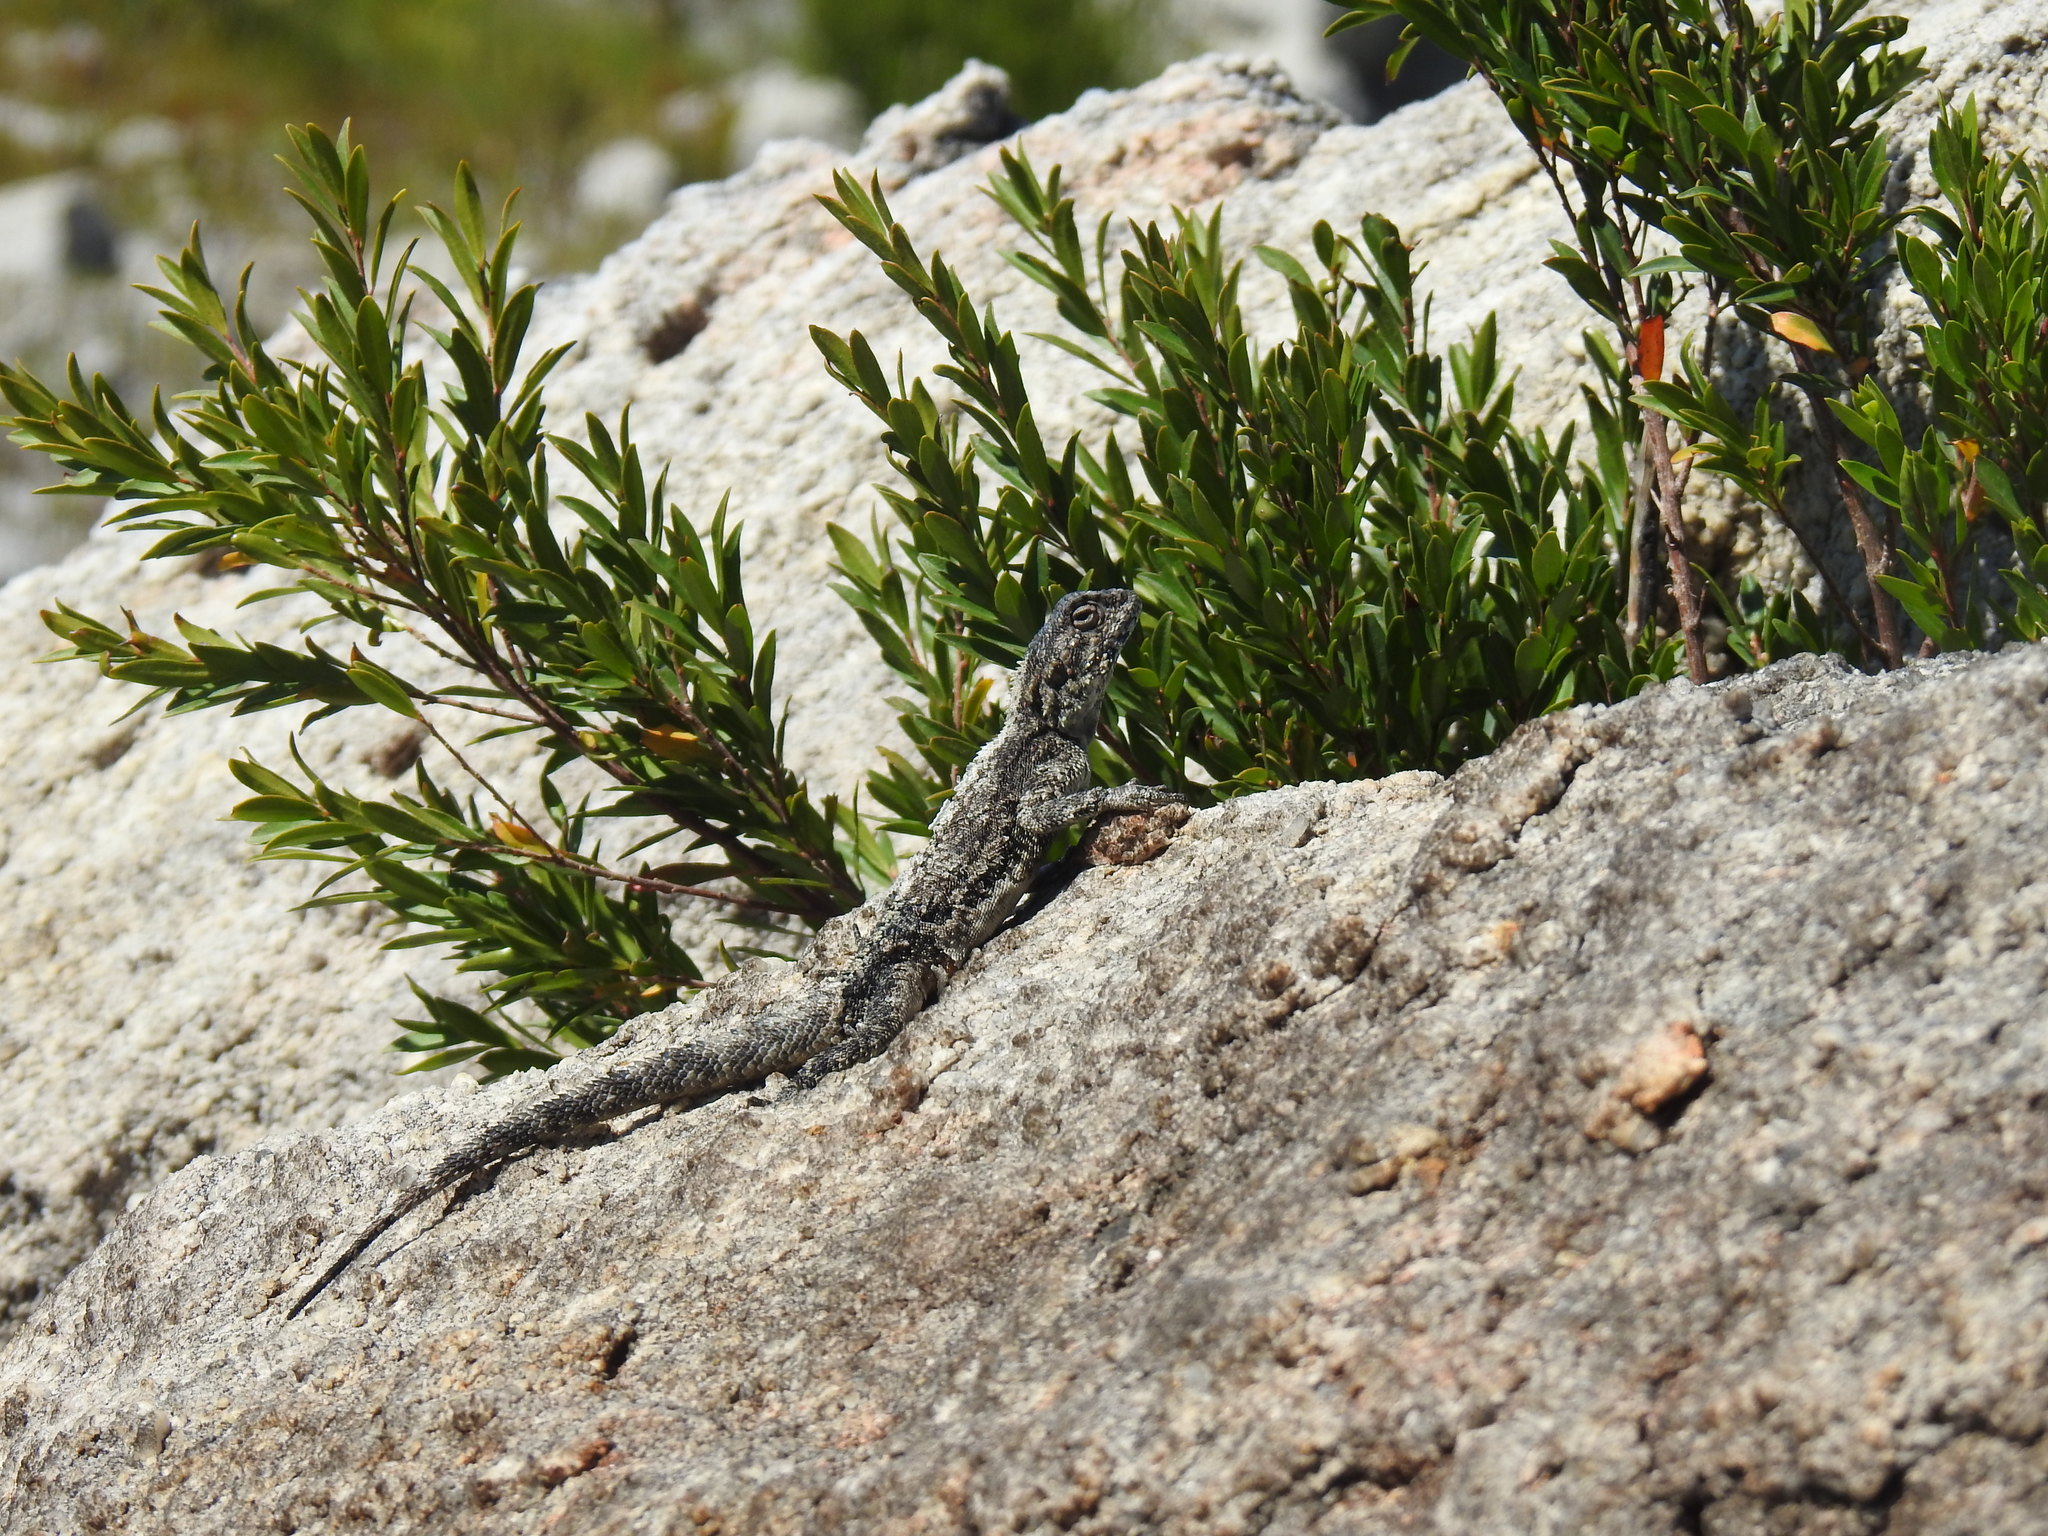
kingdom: Animalia
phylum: Chordata
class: Squamata
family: Agamidae
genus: Agama
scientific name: Agama atra
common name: Southern african rock agama
